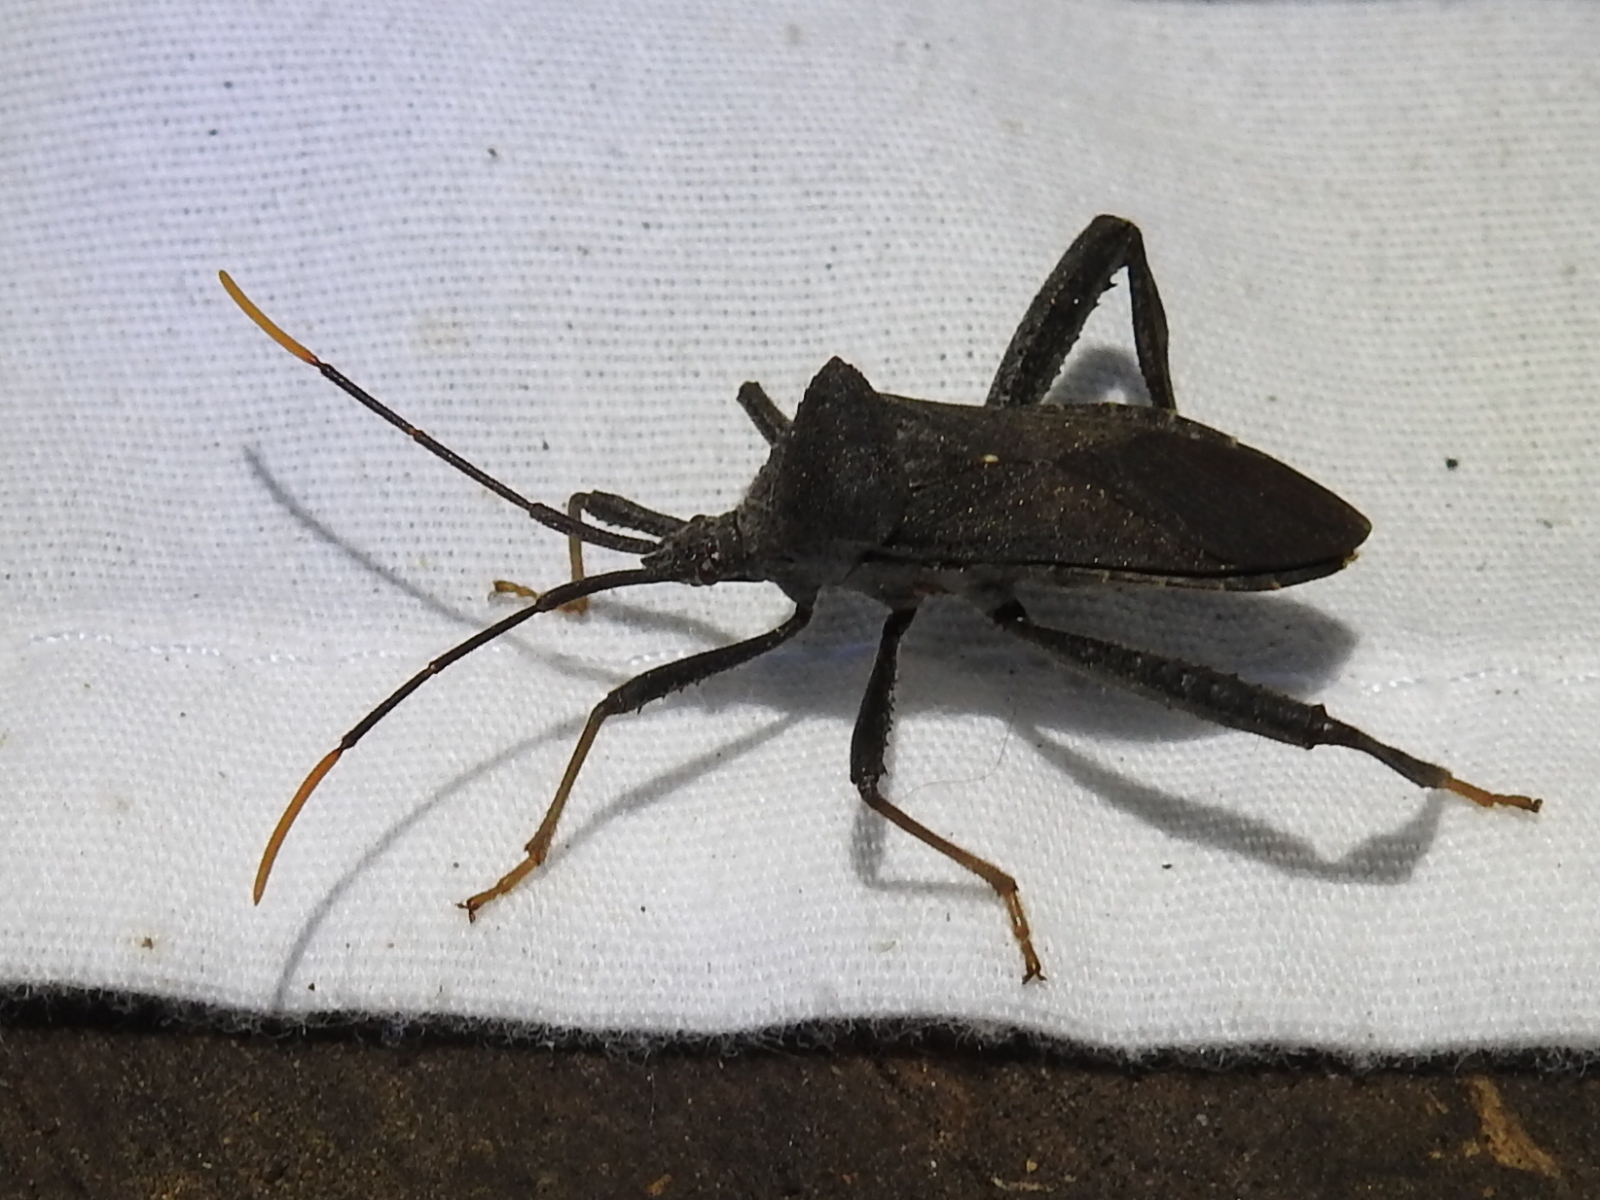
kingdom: Animalia
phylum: Arthropoda
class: Insecta
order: Hemiptera
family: Coreidae
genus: Acanthocephala
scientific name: Acanthocephala terminalis
